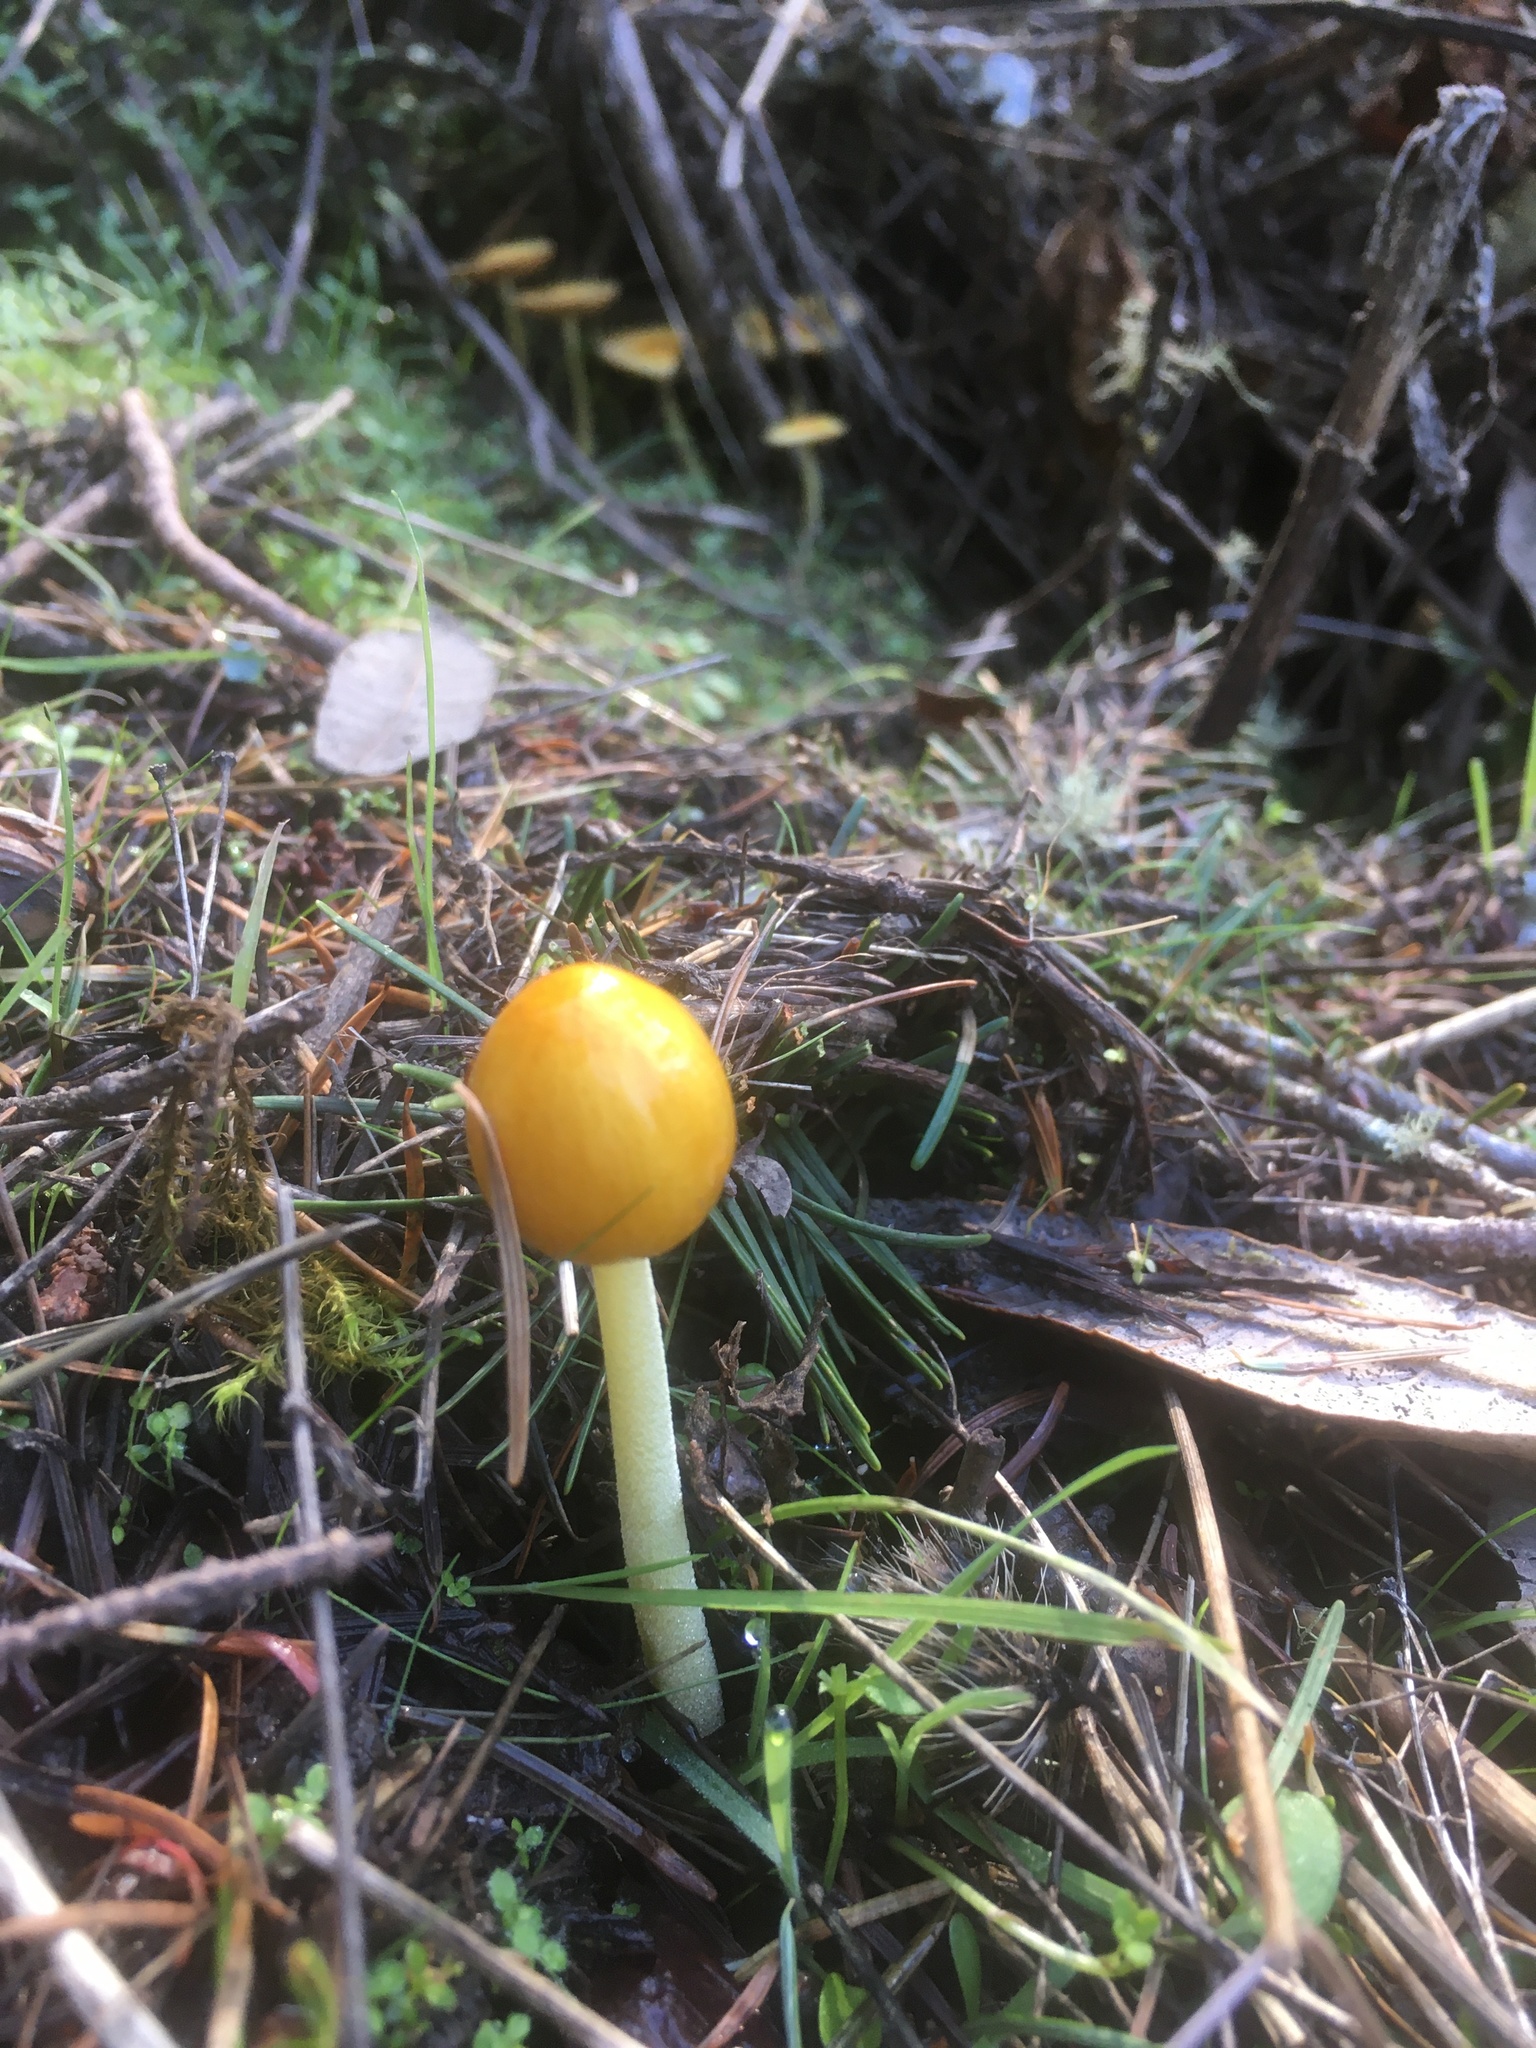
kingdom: Fungi
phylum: Basidiomycota
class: Agaricomycetes
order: Agaricales
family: Bolbitiaceae
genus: Bolbitius
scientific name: Bolbitius titubans
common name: Yellow fieldcap
